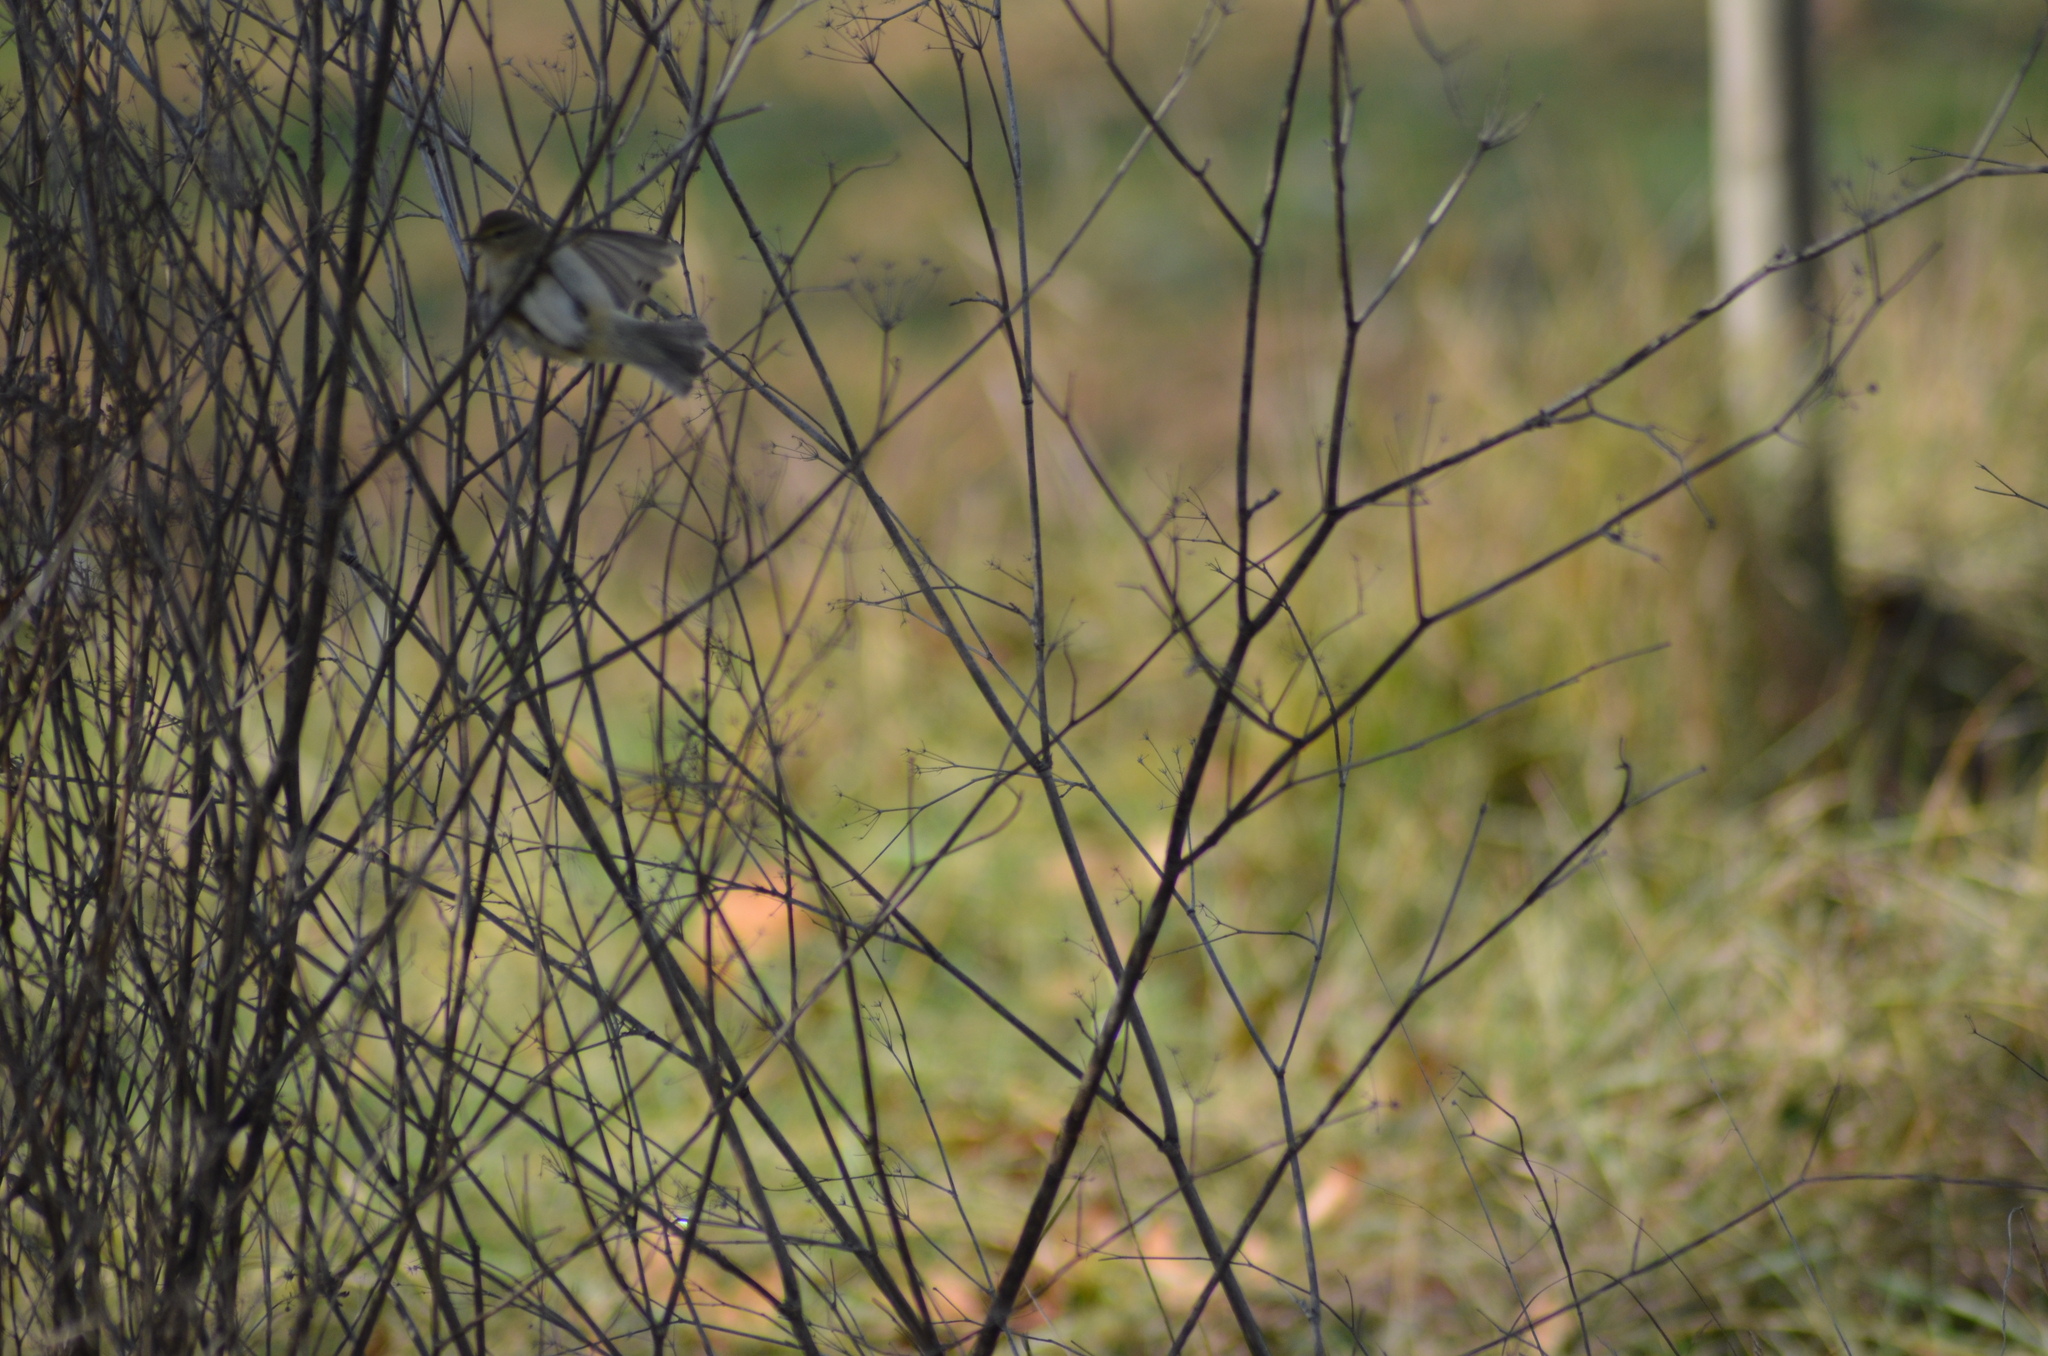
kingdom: Animalia
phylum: Chordata
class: Aves
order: Passeriformes
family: Phylloscopidae
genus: Phylloscopus
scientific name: Phylloscopus collybita
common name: Common chiffchaff
